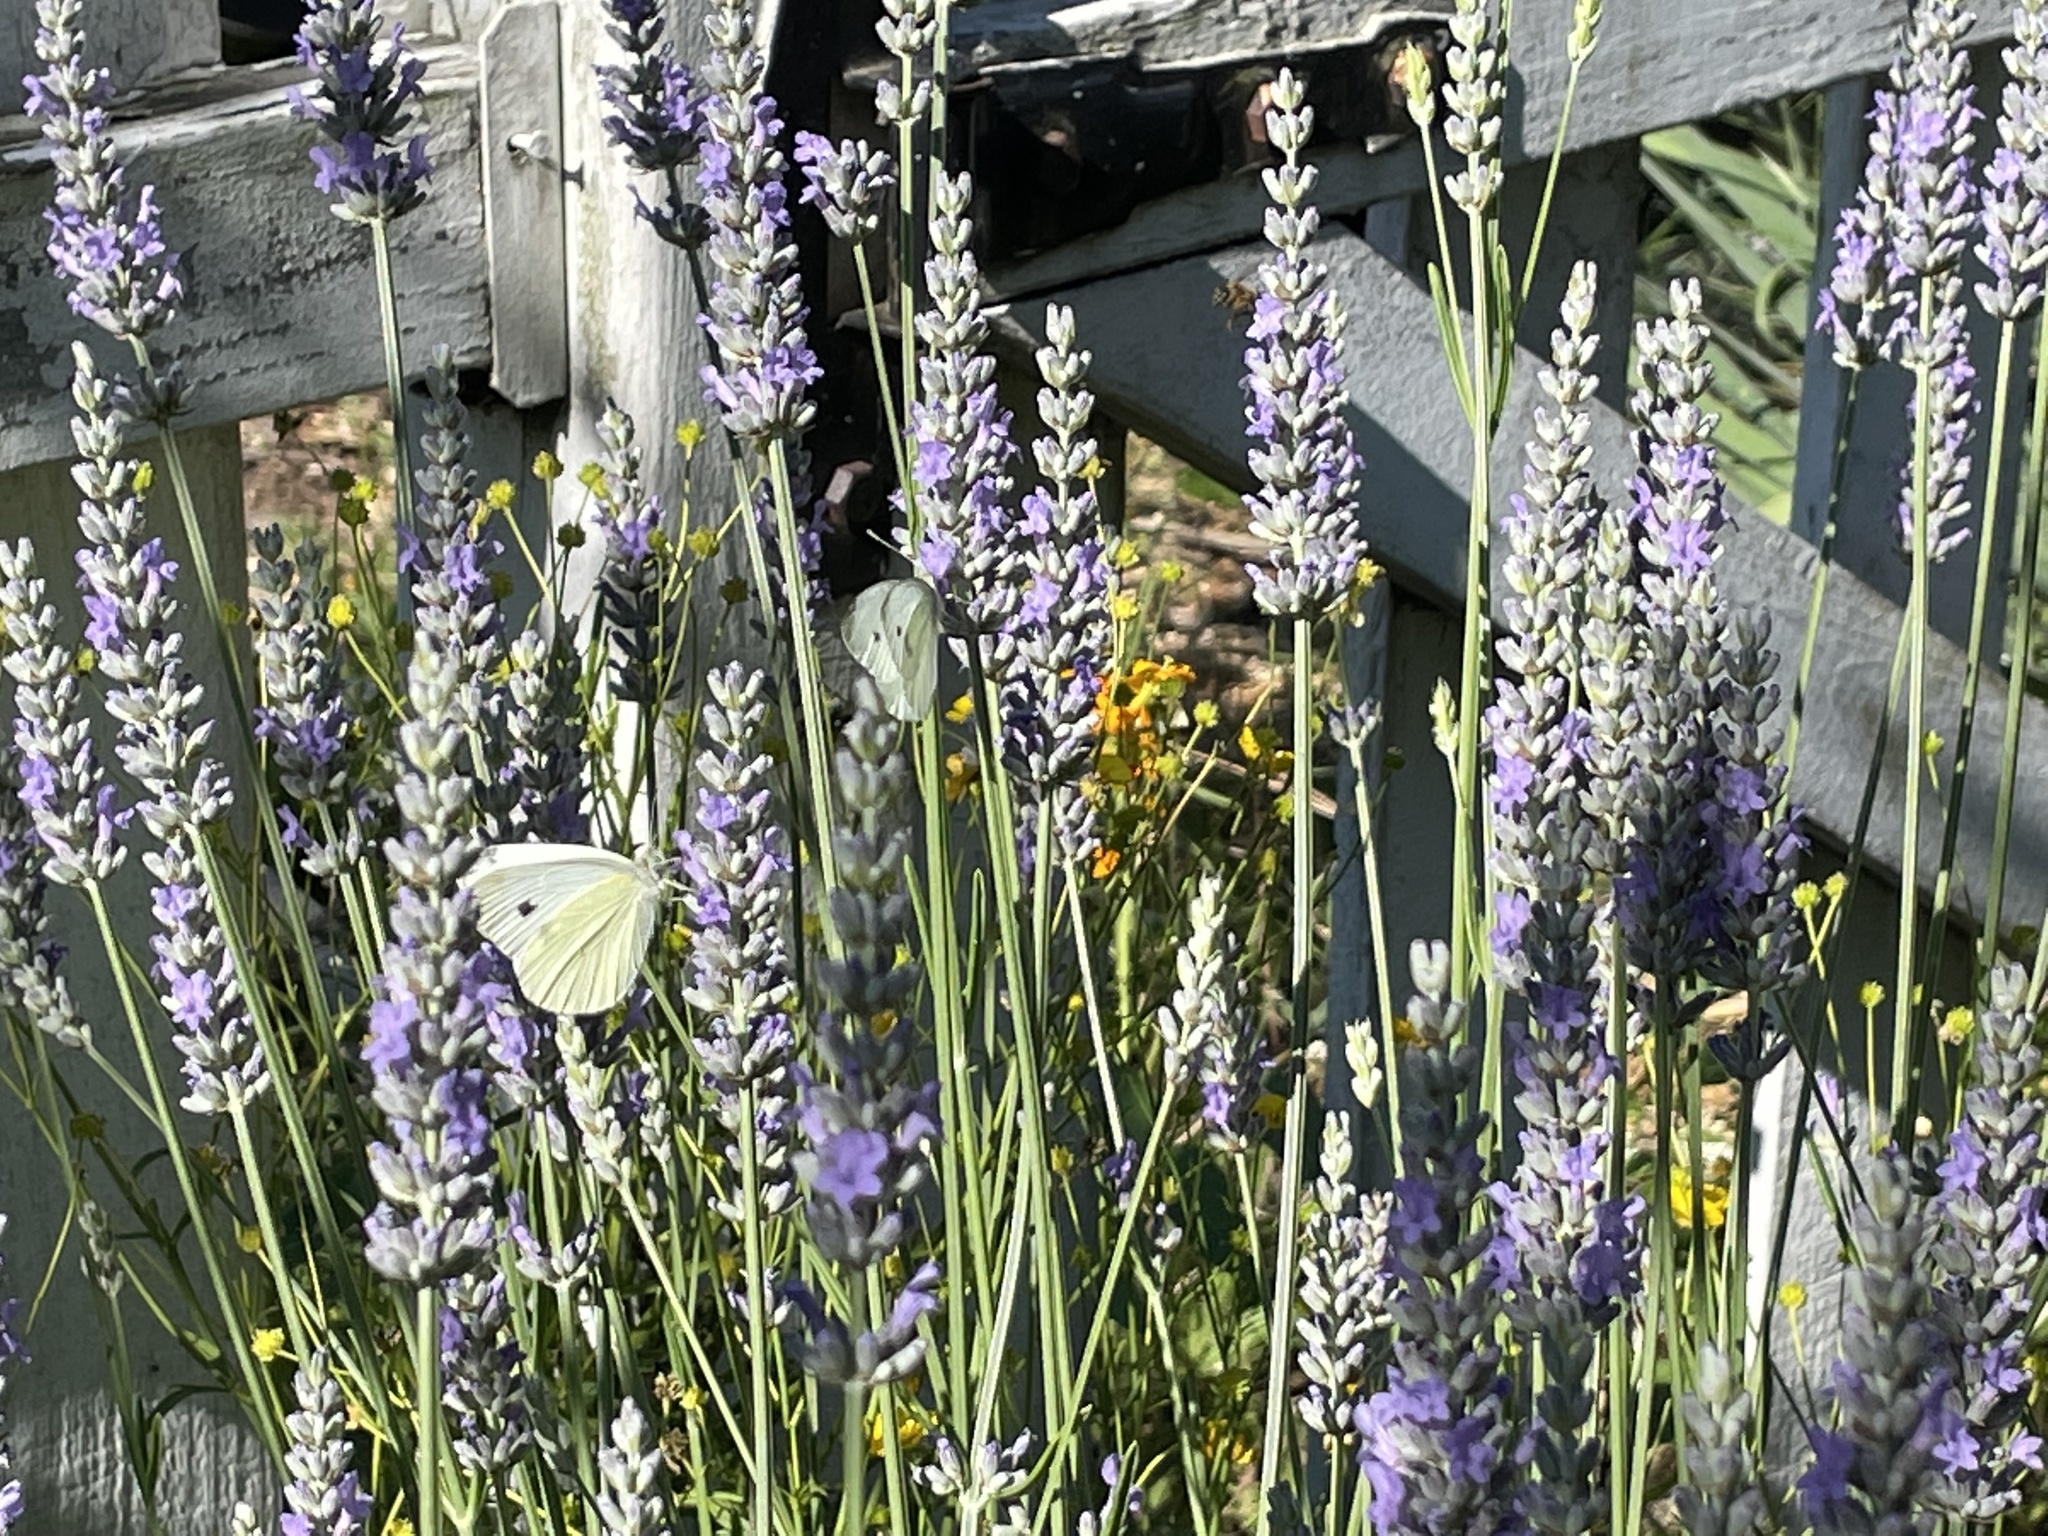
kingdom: Animalia
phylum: Arthropoda
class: Insecta
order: Lepidoptera
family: Pieridae
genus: Pieris
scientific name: Pieris rapae
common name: Small white
